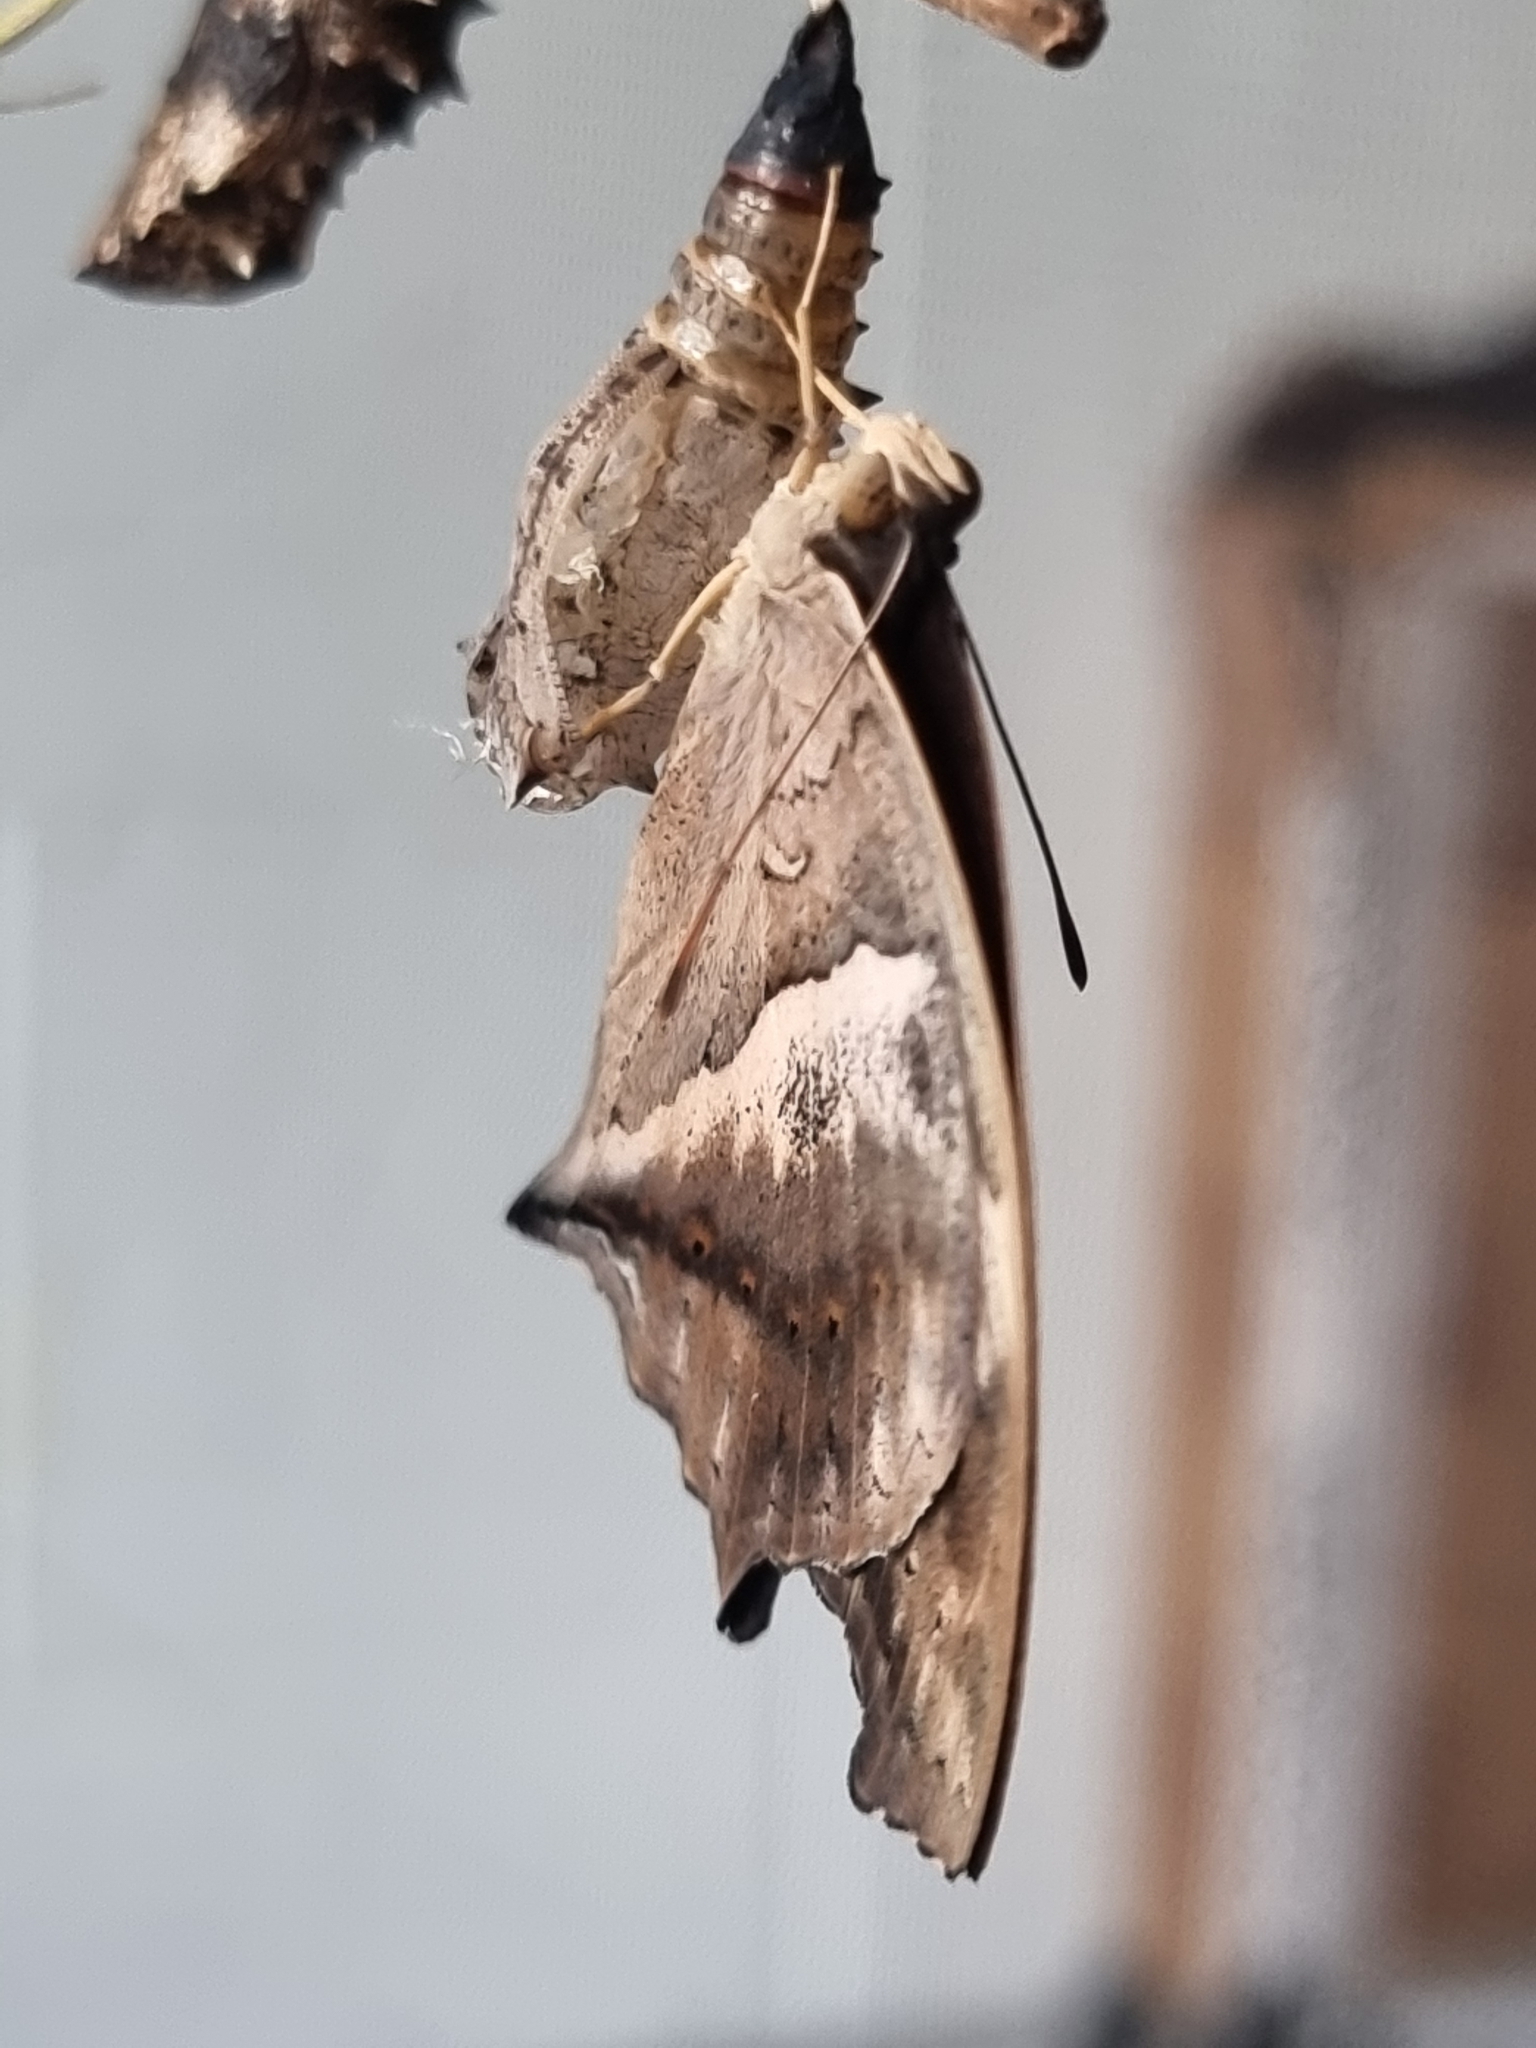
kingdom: Animalia
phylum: Arthropoda
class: Insecta
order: Lepidoptera
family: Nymphalidae
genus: Yoma
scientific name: Yoma sabina
